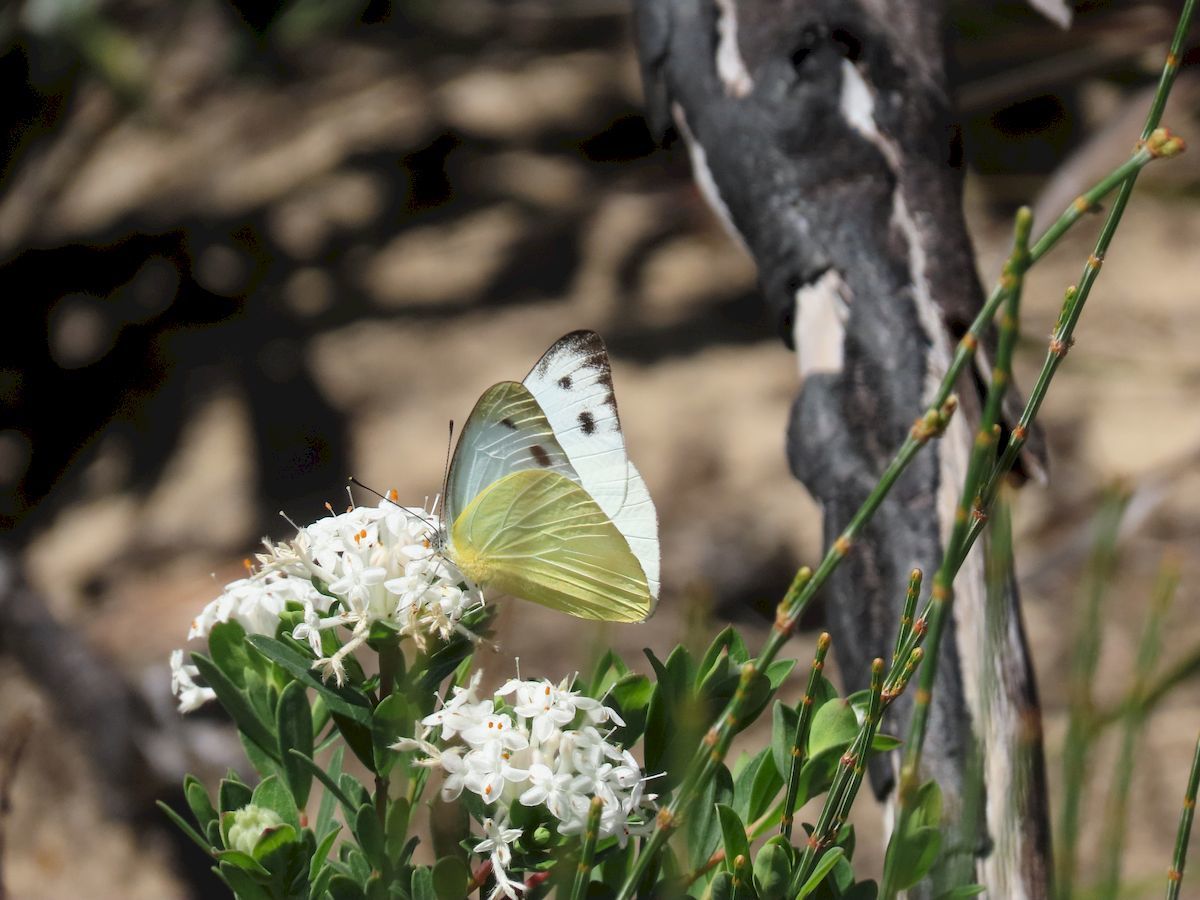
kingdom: Animalia
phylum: Arthropoda
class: Insecta
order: Lepidoptera
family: Pieridae
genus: Pieris
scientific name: Pieris rapae
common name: Small white
